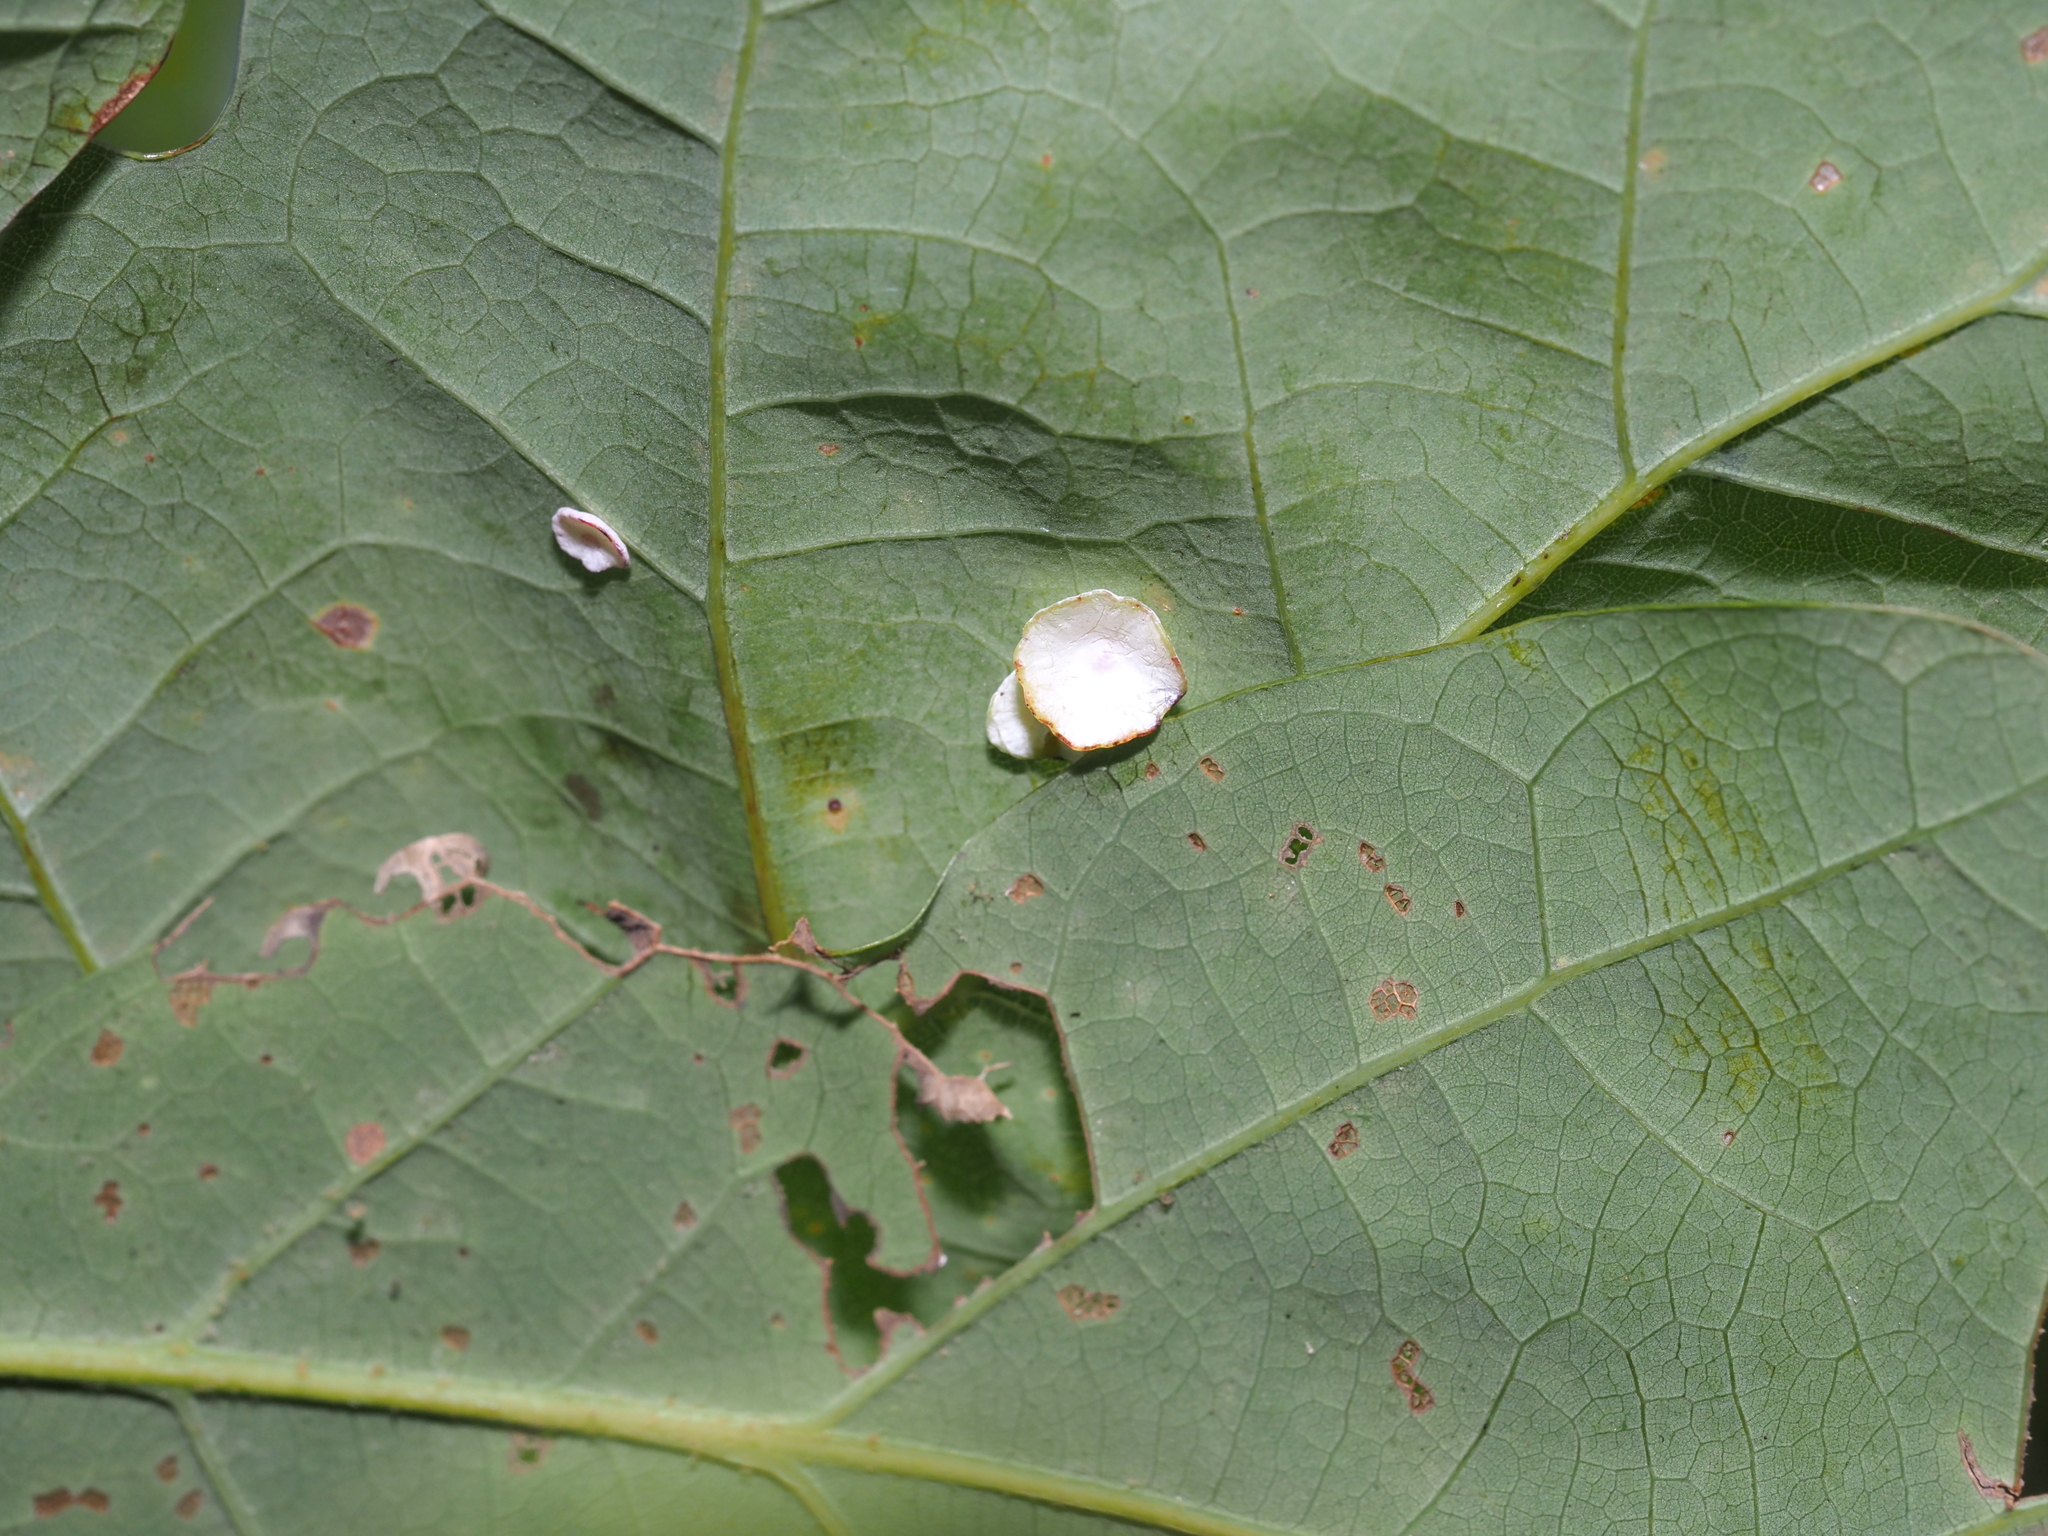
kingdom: Animalia
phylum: Arthropoda
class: Insecta
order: Hymenoptera
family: Cynipidae
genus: Phylloteras
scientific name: Phylloteras poculum
